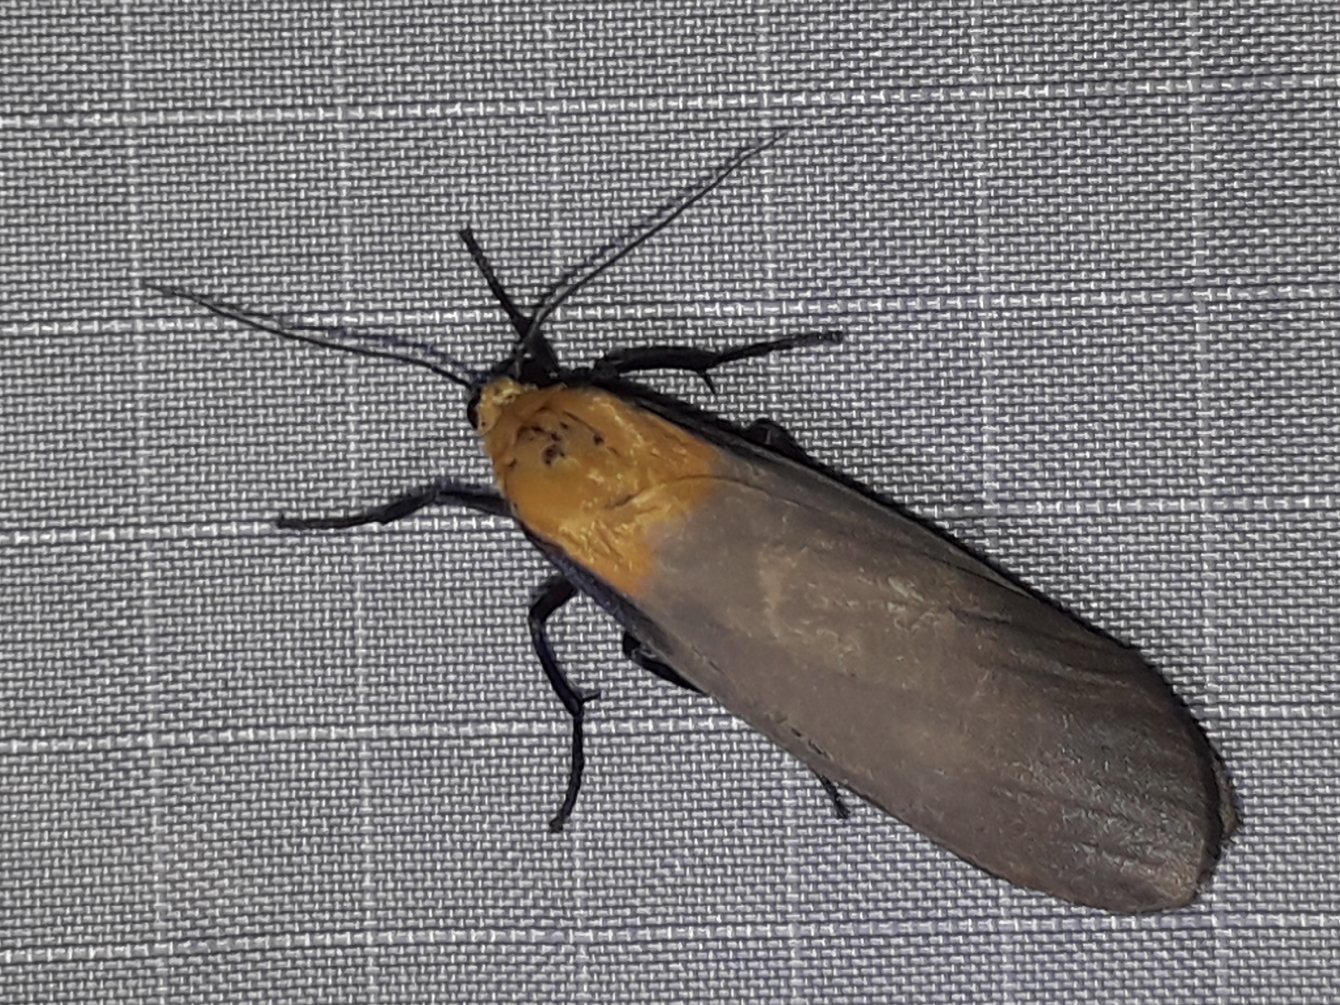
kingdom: Animalia
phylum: Arthropoda
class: Insecta
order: Lepidoptera
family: Erebidae
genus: Lithosia
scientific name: Lithosia quadra
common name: Four-spotted footman
